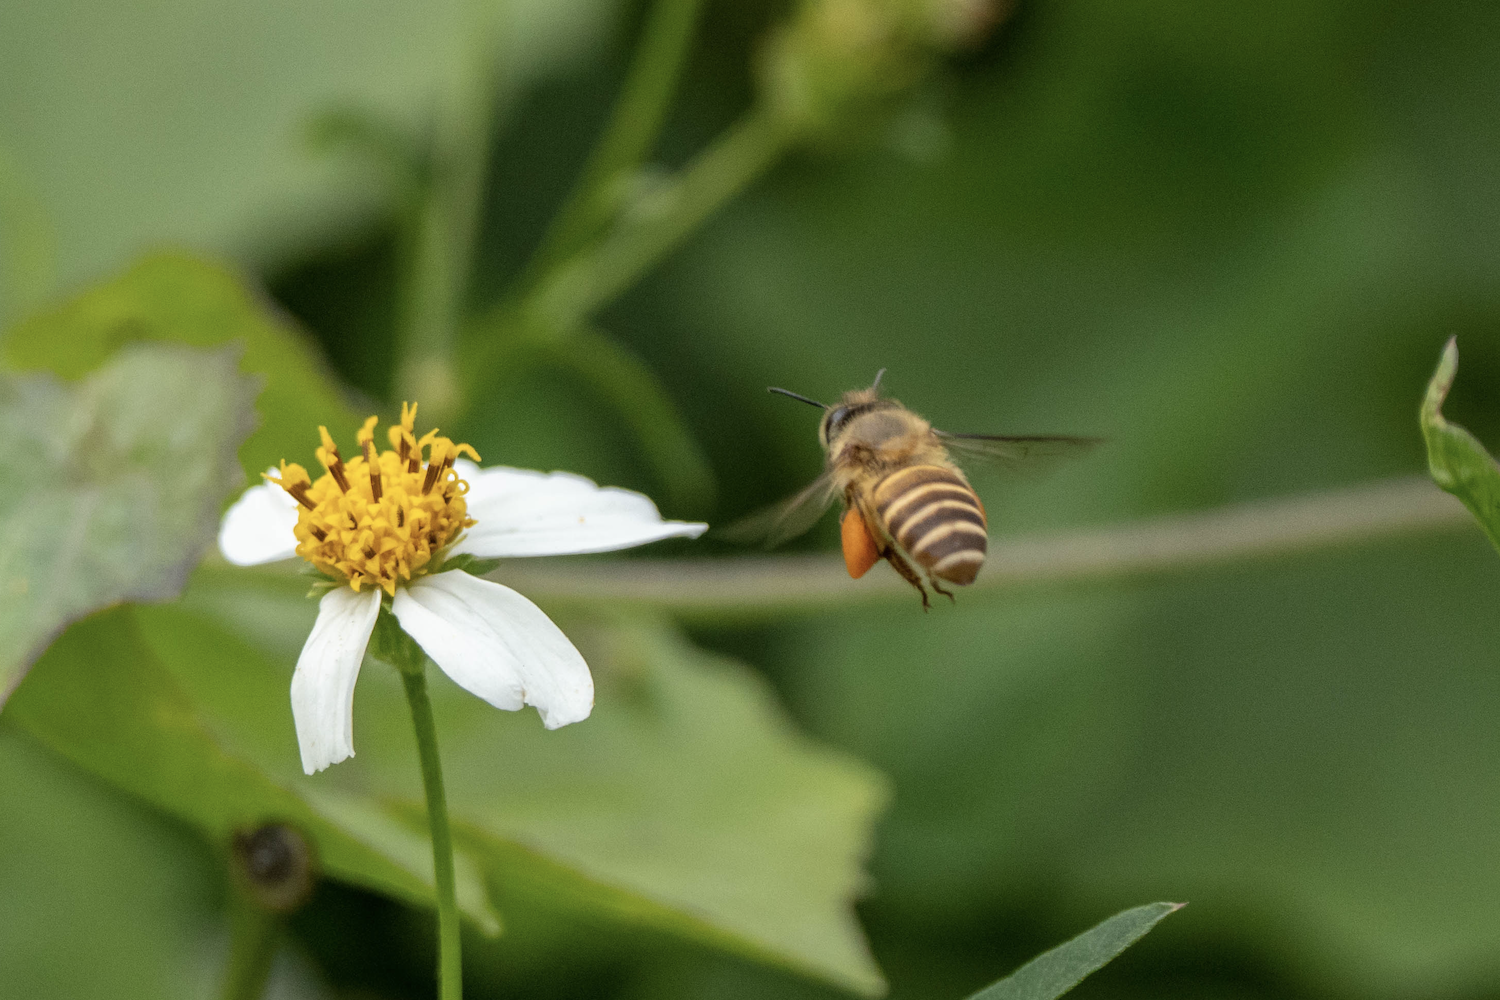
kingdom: Animalia
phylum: Arthropoda
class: Insecta
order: Hymenoptera
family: Apidae
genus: Apis
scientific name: Apis cerana
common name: Honey bee
